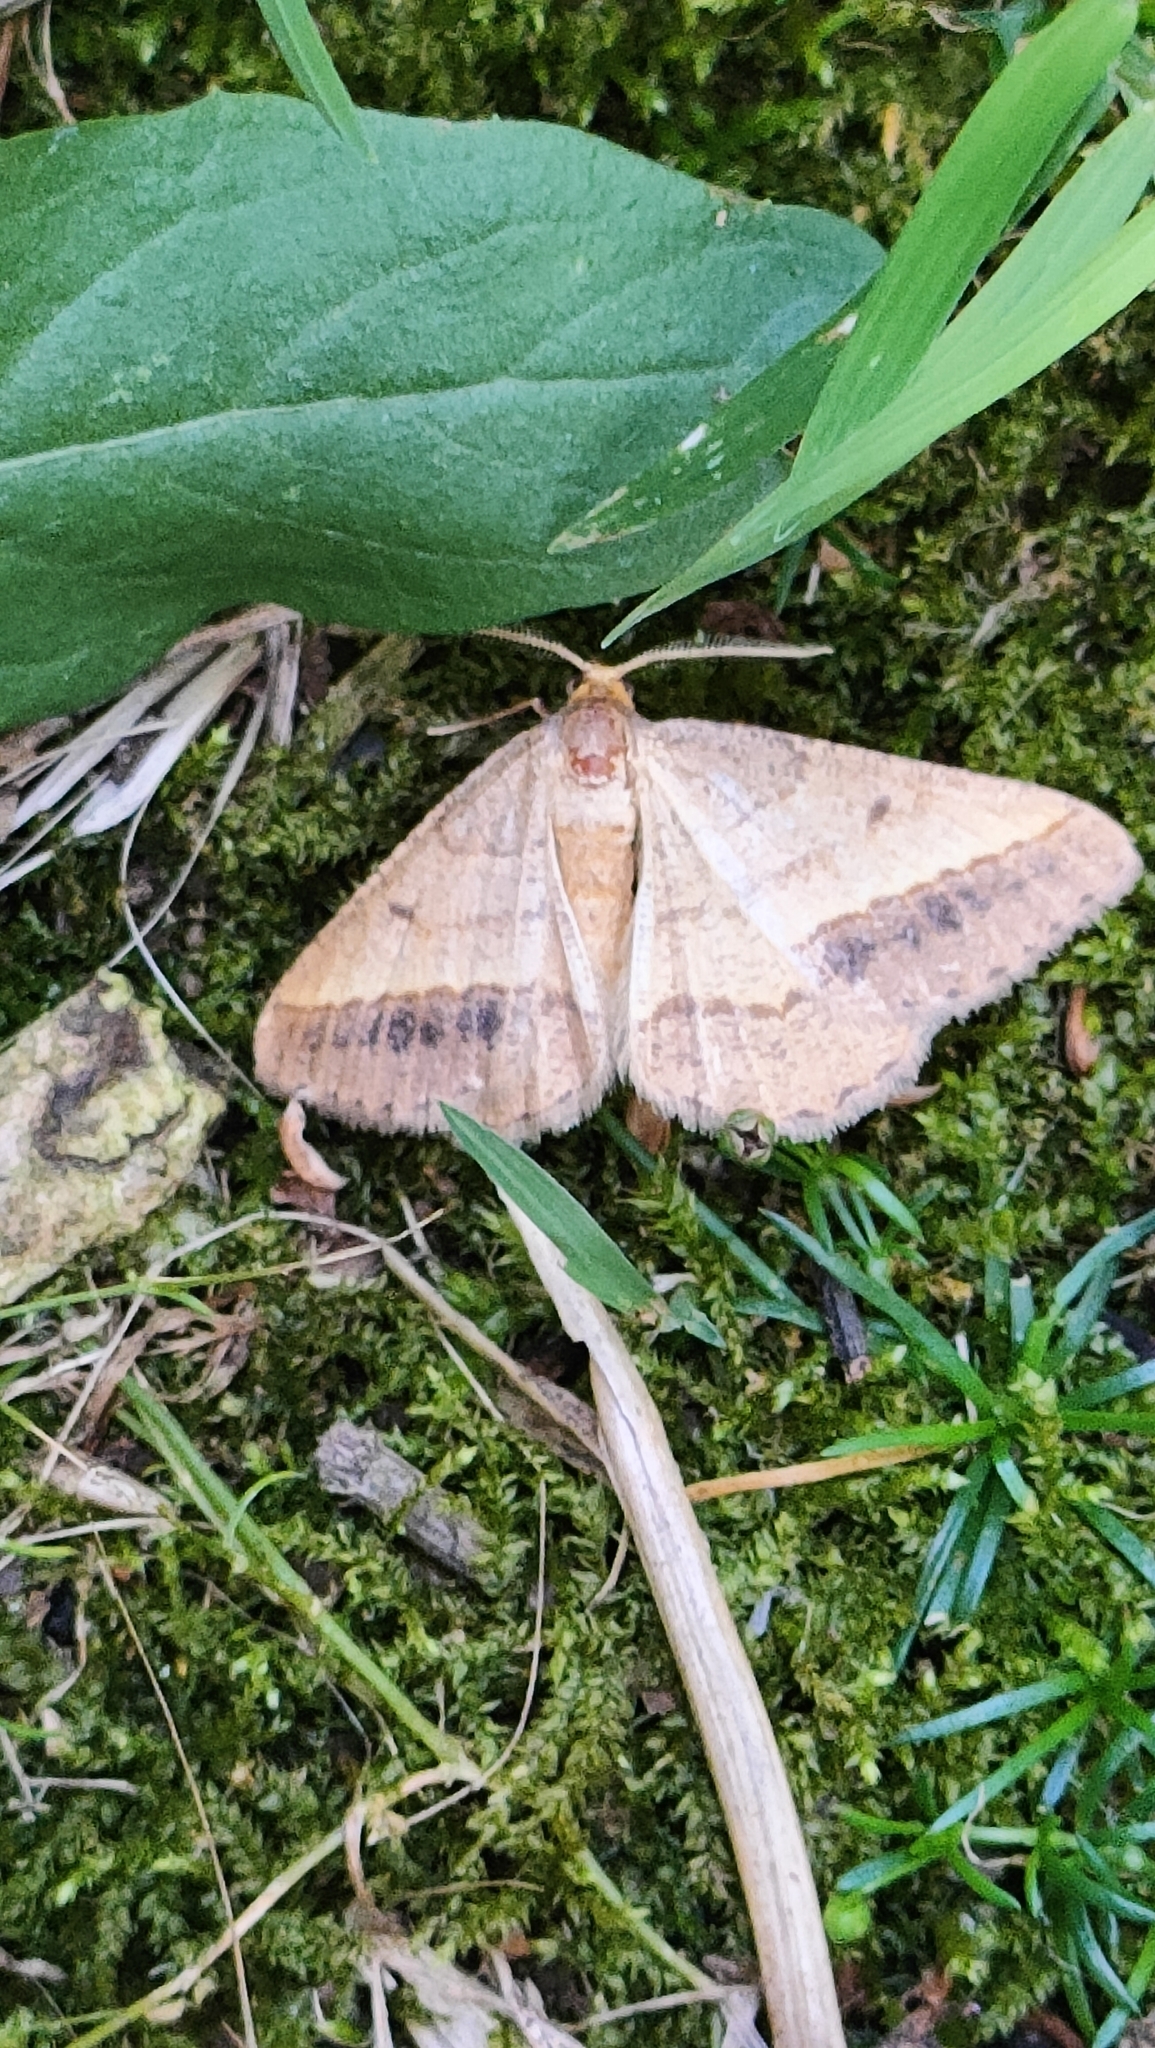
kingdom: Animalia
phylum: Arthropoda
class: Insecta
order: Lepidoptera
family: Geometridae
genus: Tephrina
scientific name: Tephrina arenacearia
